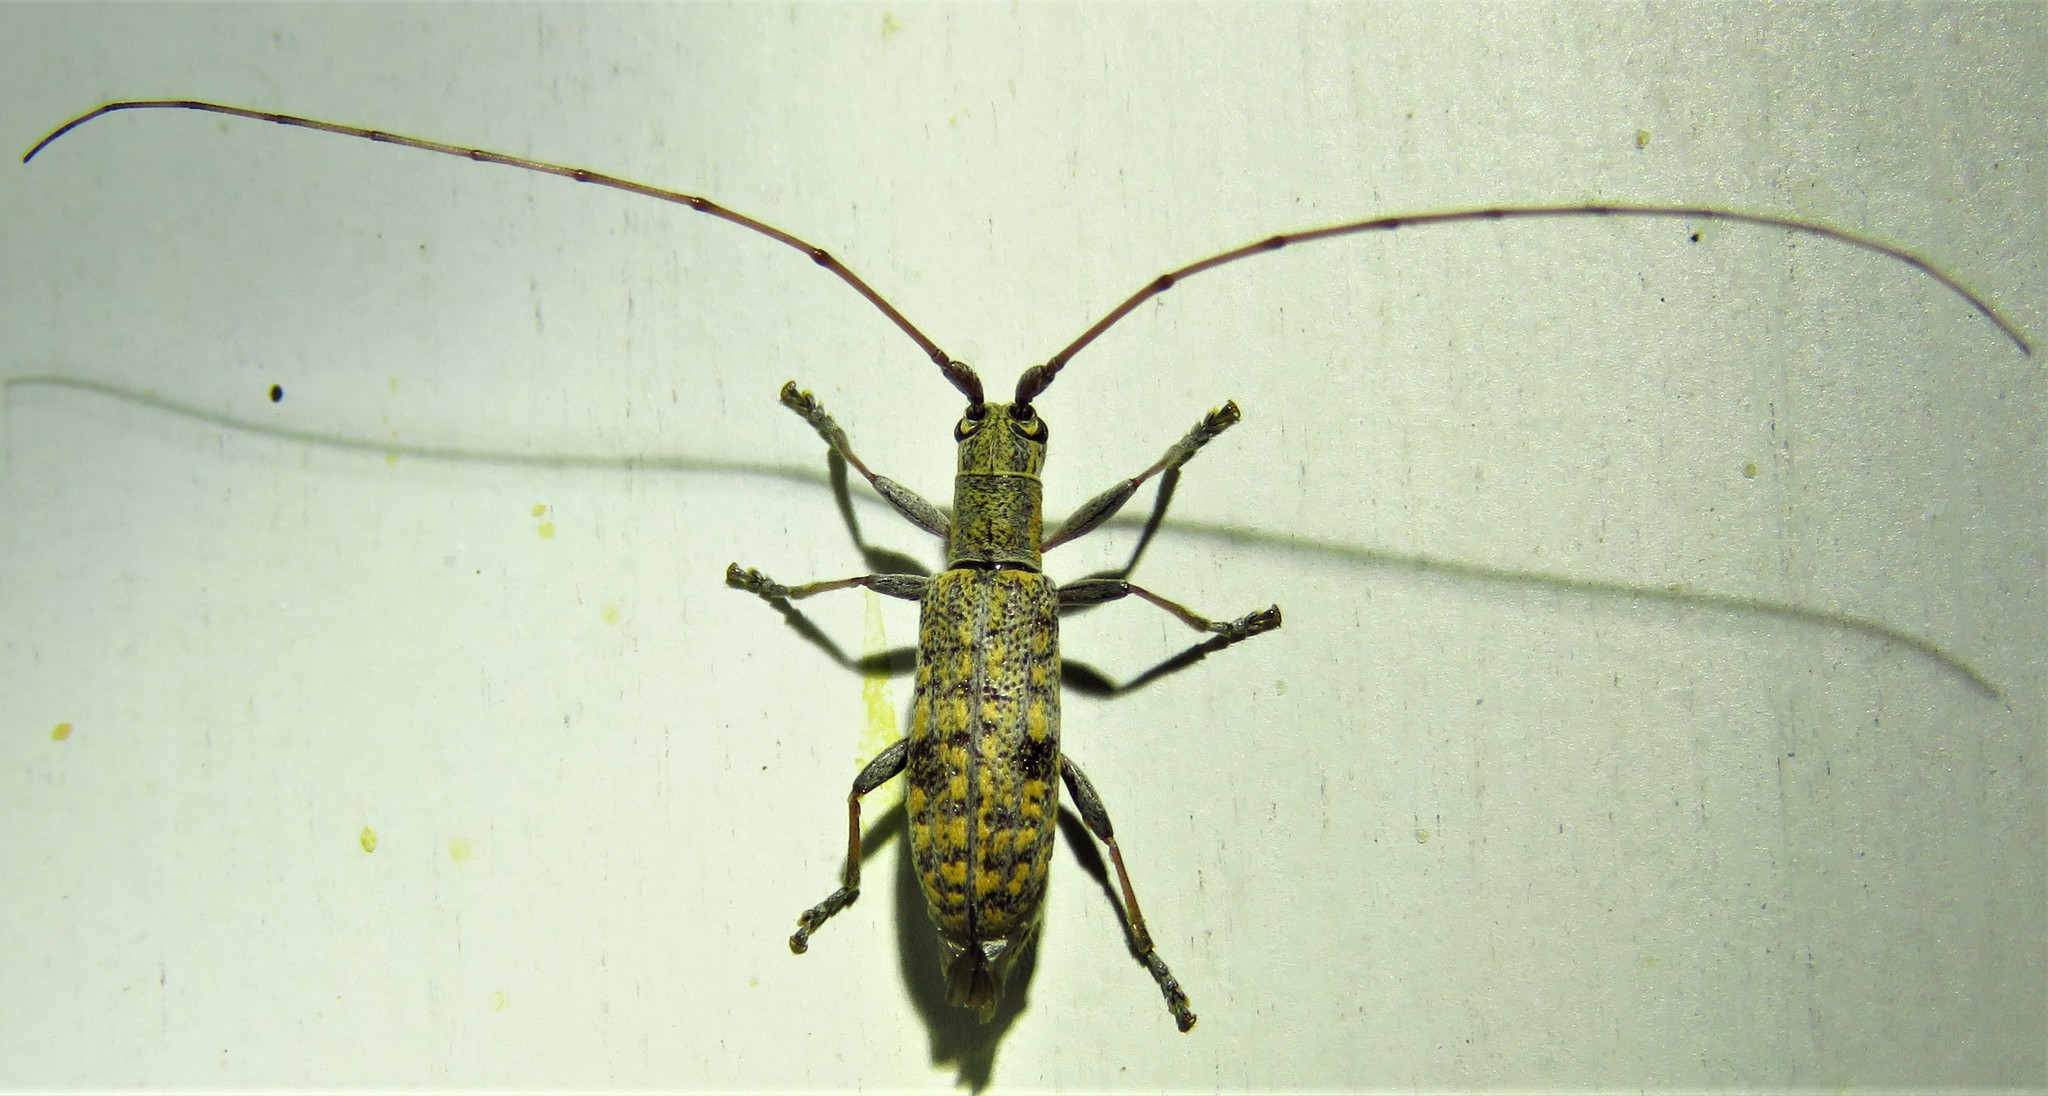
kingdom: Animalia
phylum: Arthropoda
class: Insecta
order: Coleoptera
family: Cerambycidae
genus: Dorcaschema
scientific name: Dorcaschema alternatum
